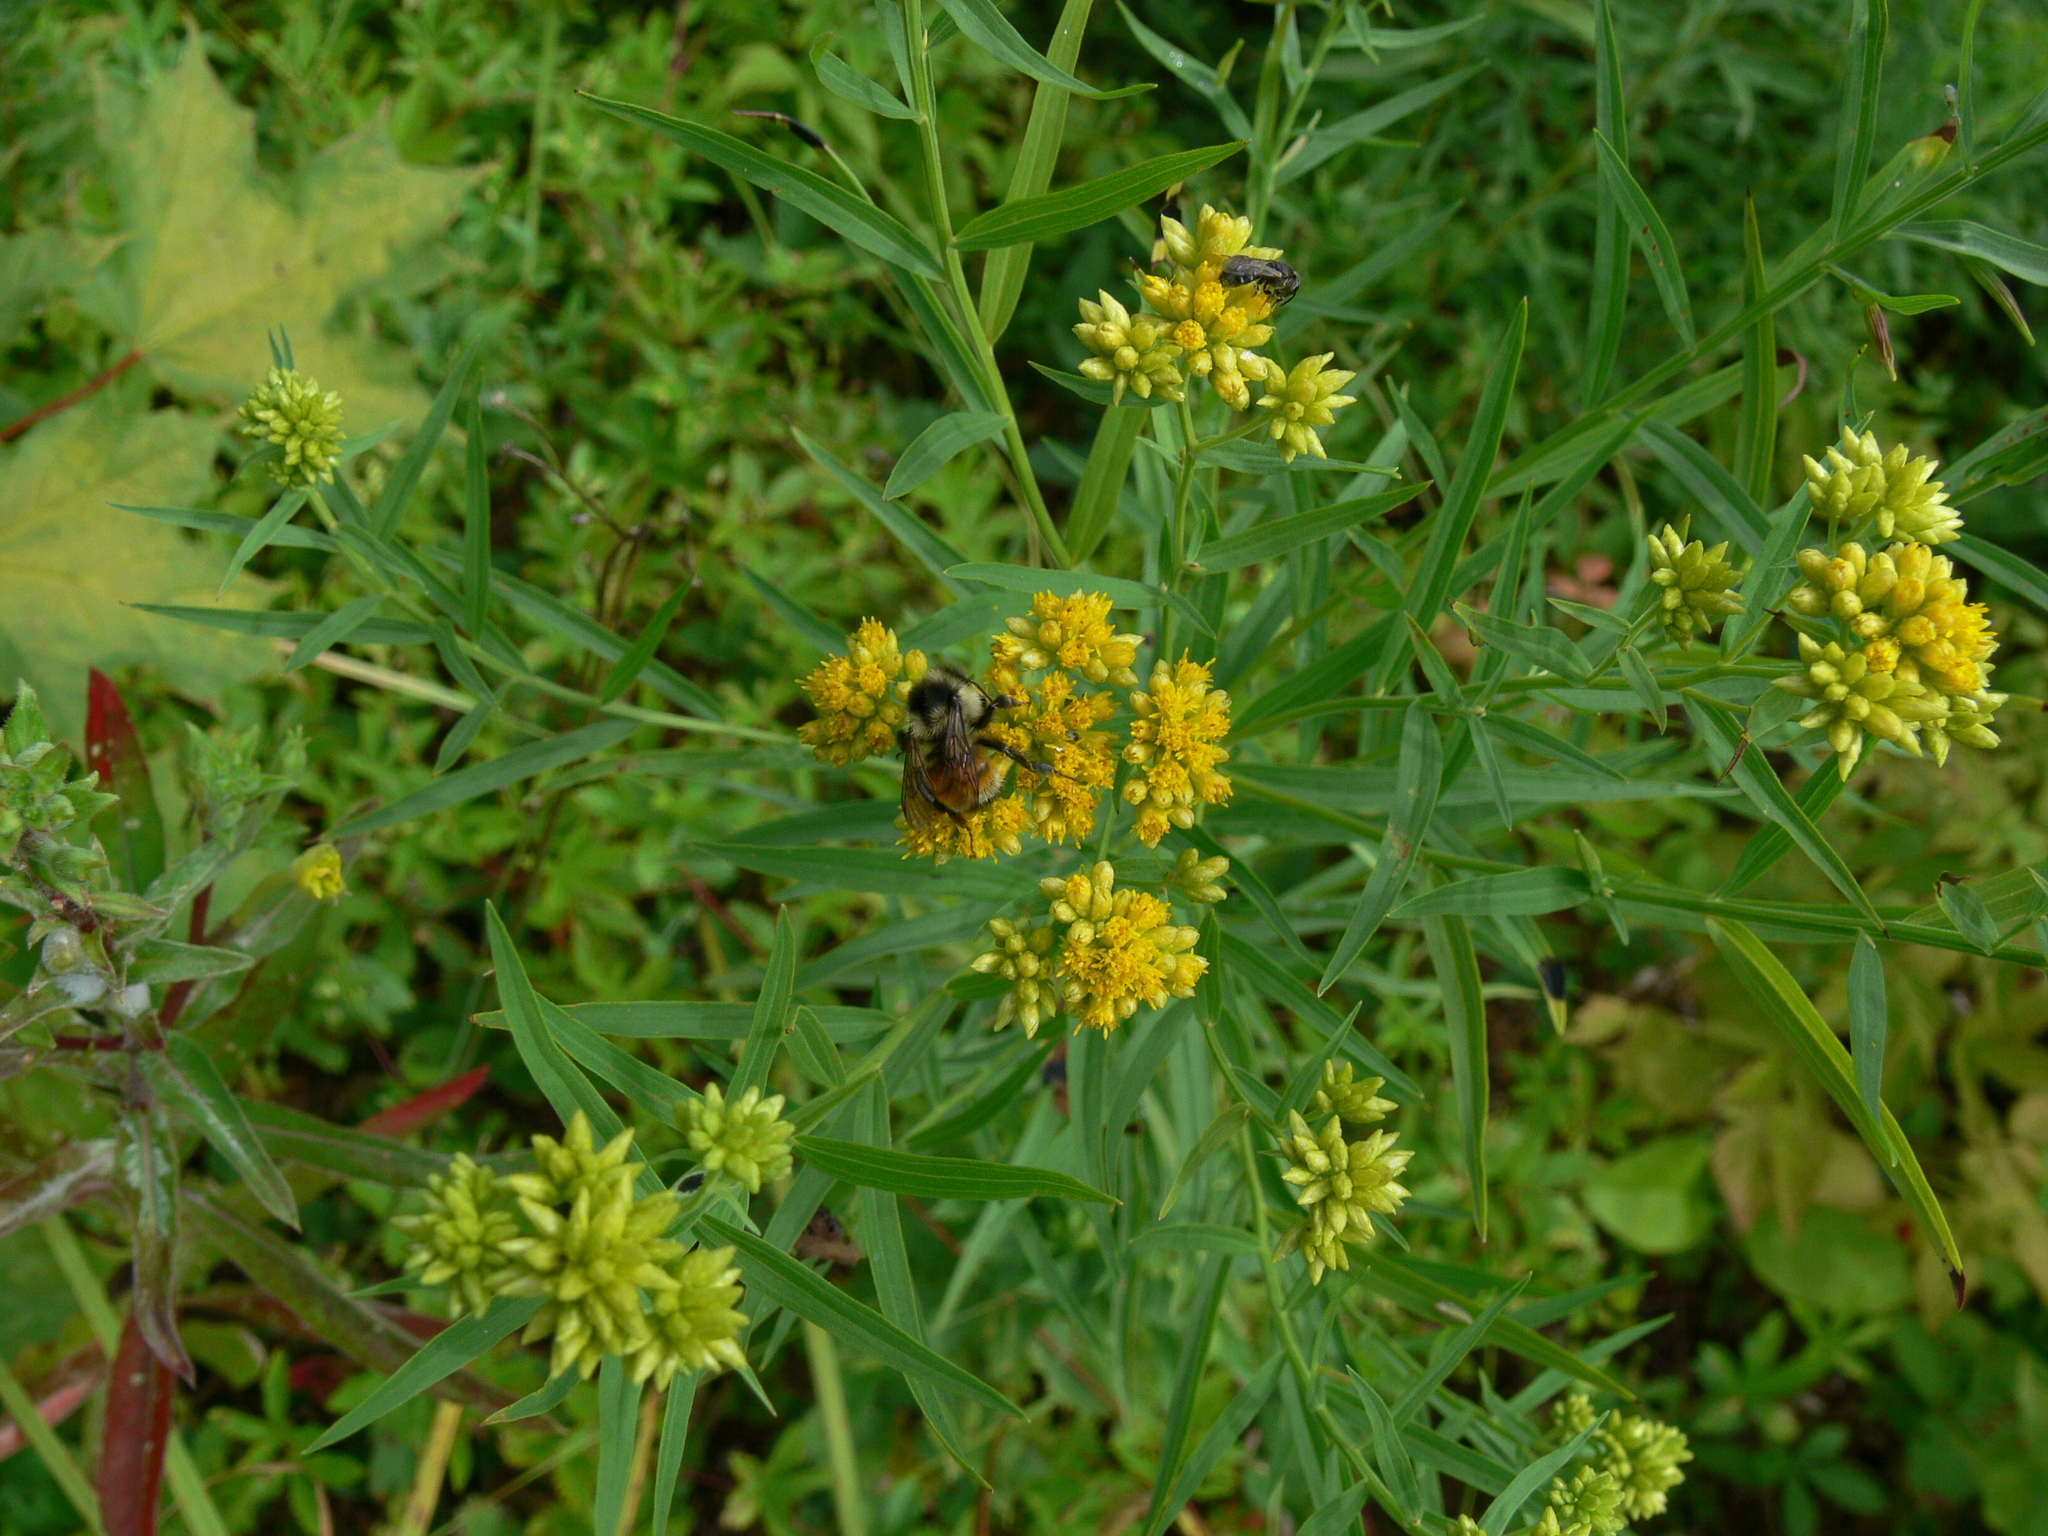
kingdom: Animalia
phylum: Arthropoda
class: Insecta
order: Hymenoptera
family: Apidae
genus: Bombus
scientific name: Bombus ternarius
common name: Tri-colored bumble bee
